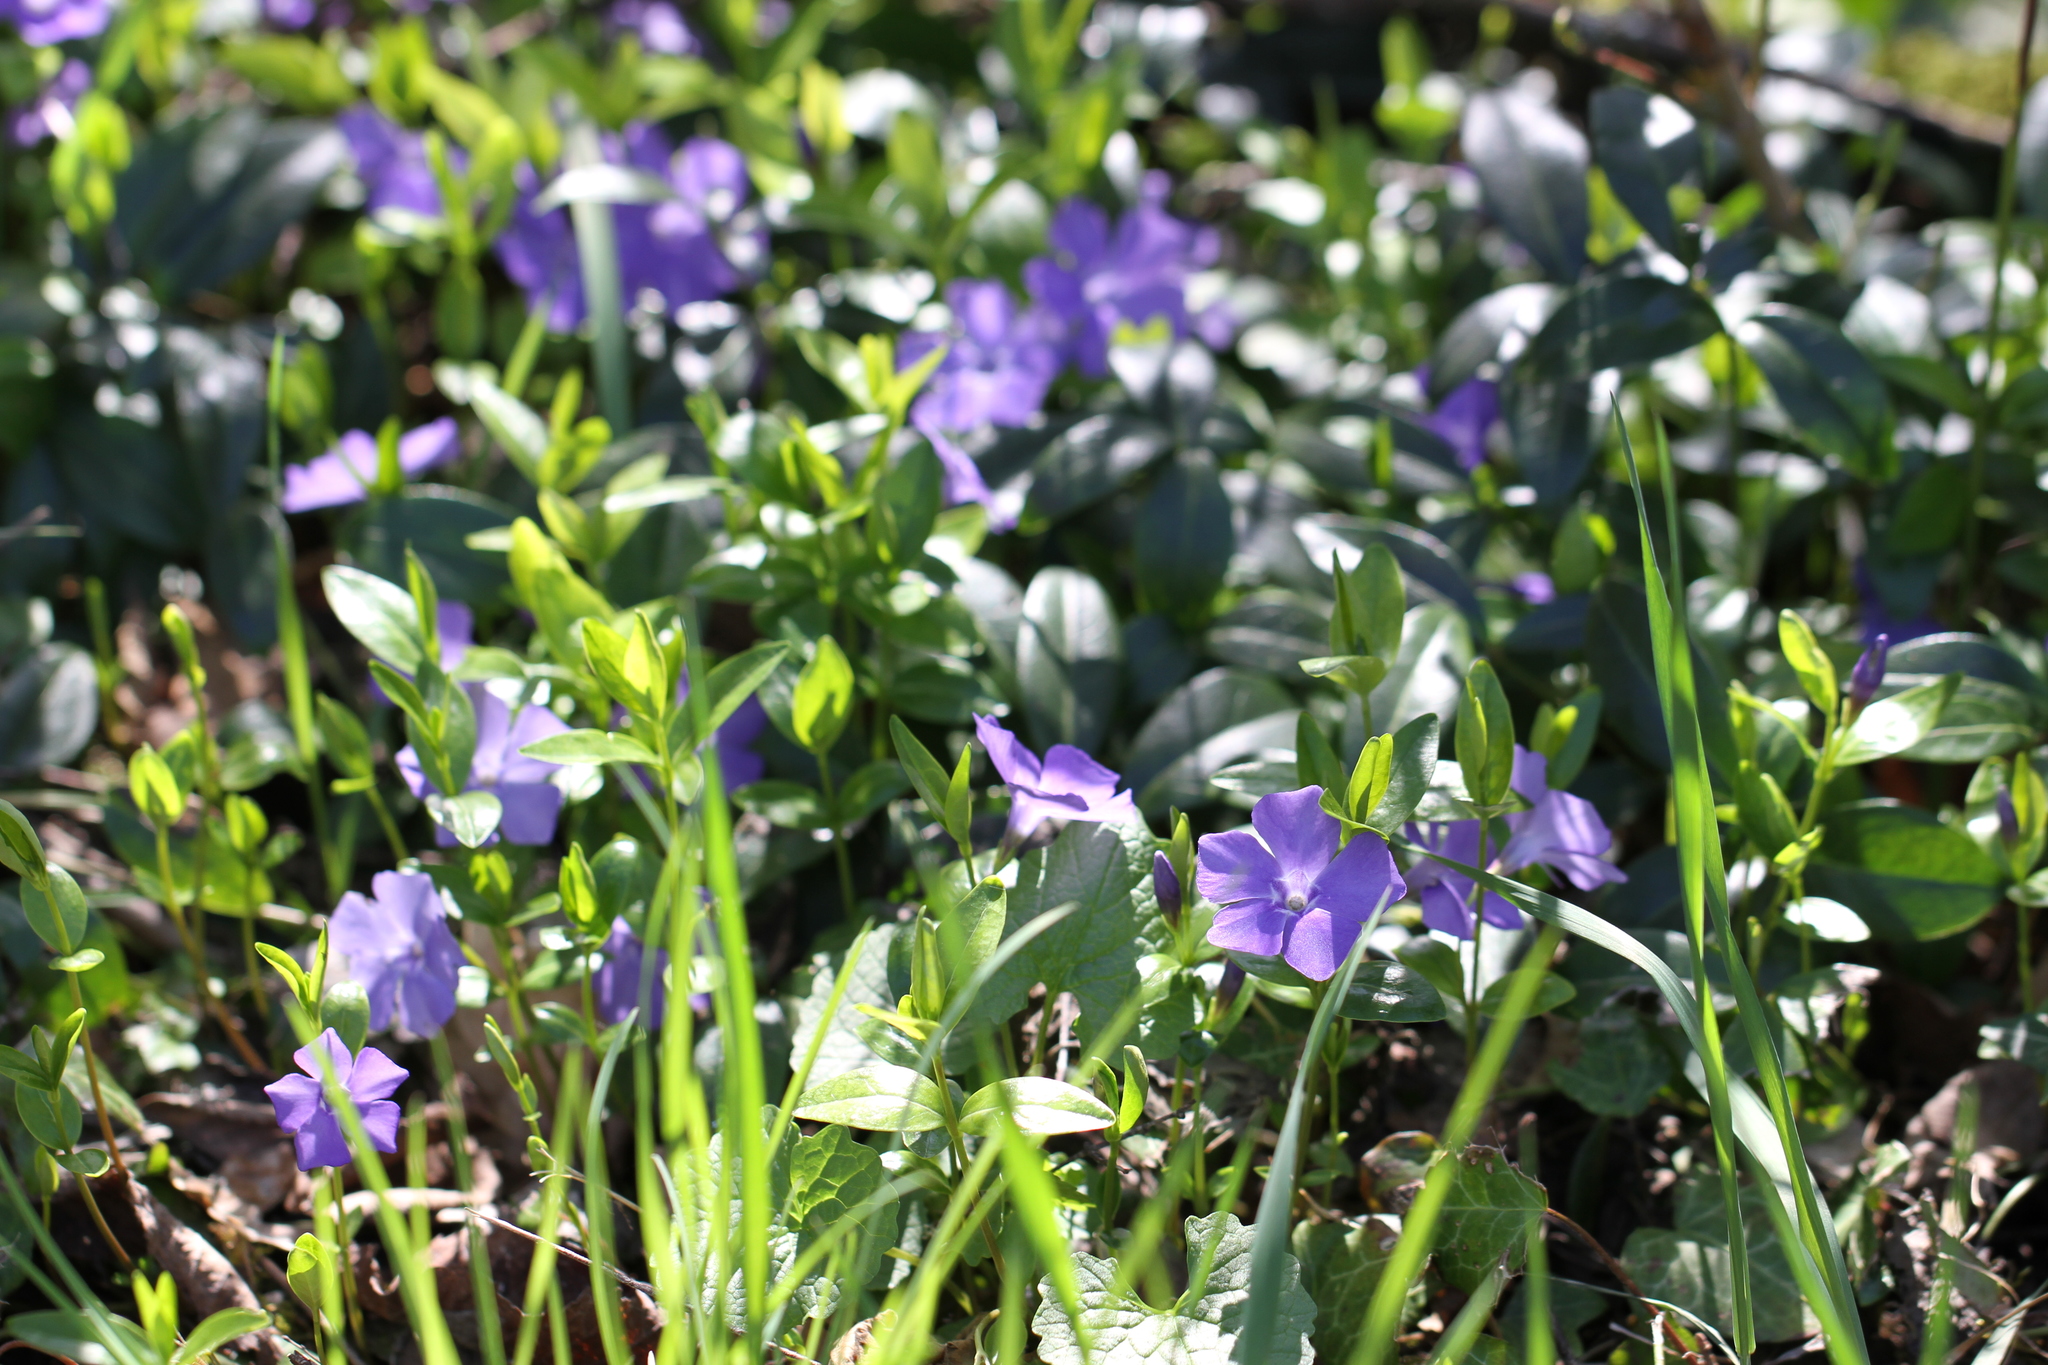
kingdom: Plantae
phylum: Tracheophyta
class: Magnoliopsida
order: Gentianales
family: Apocynaceae
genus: Vinca
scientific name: Vinca minor
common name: Lesser periwinkle
